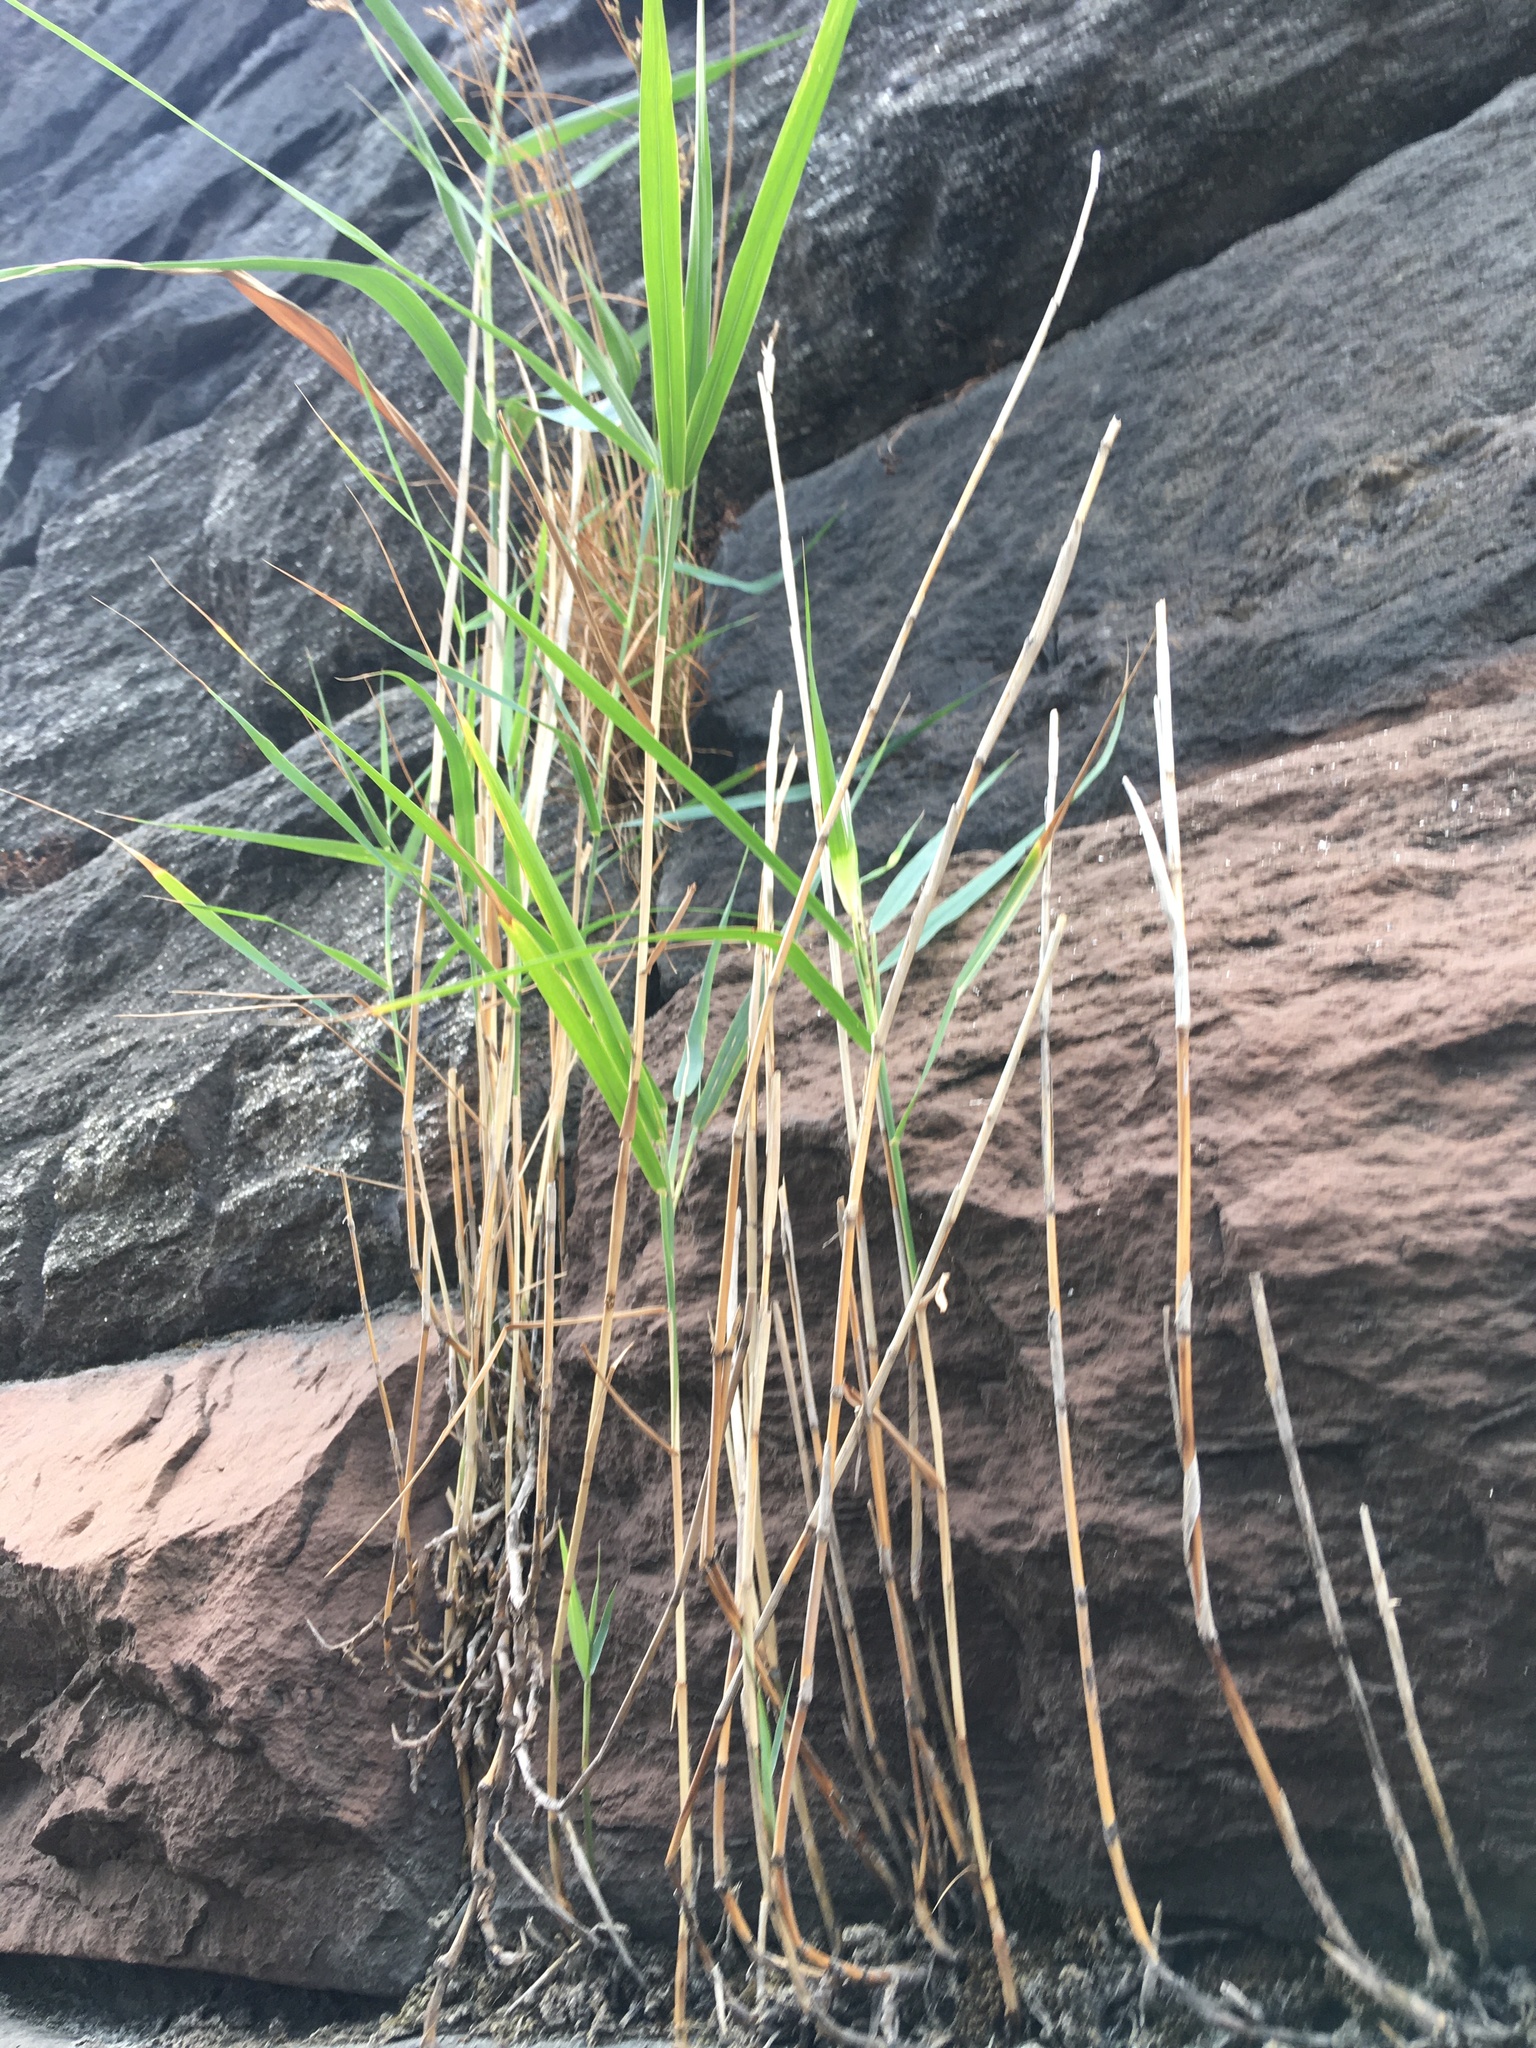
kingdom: Plantae
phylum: Tracheophyta
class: Liliopsida
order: Poales
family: Poaceae
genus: Phragmites
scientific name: Phragmites australis
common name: Common reed
